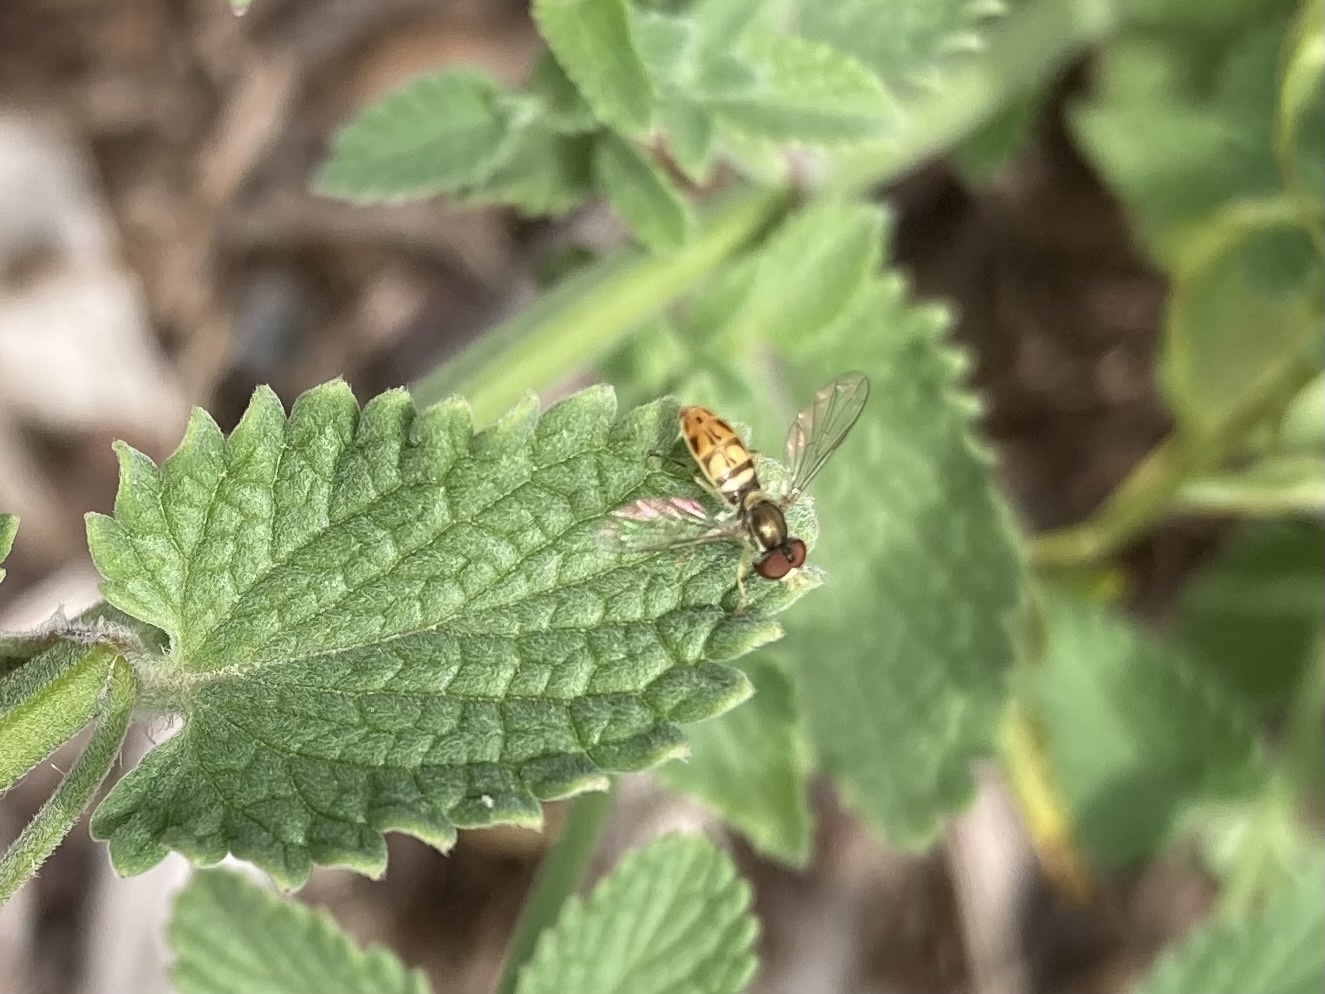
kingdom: Animalia
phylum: Arthropoda
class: Insecta
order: Diptera
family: Syrphidae
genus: Toxomerus
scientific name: Toxomerus marginatus
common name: Syrphid fly
